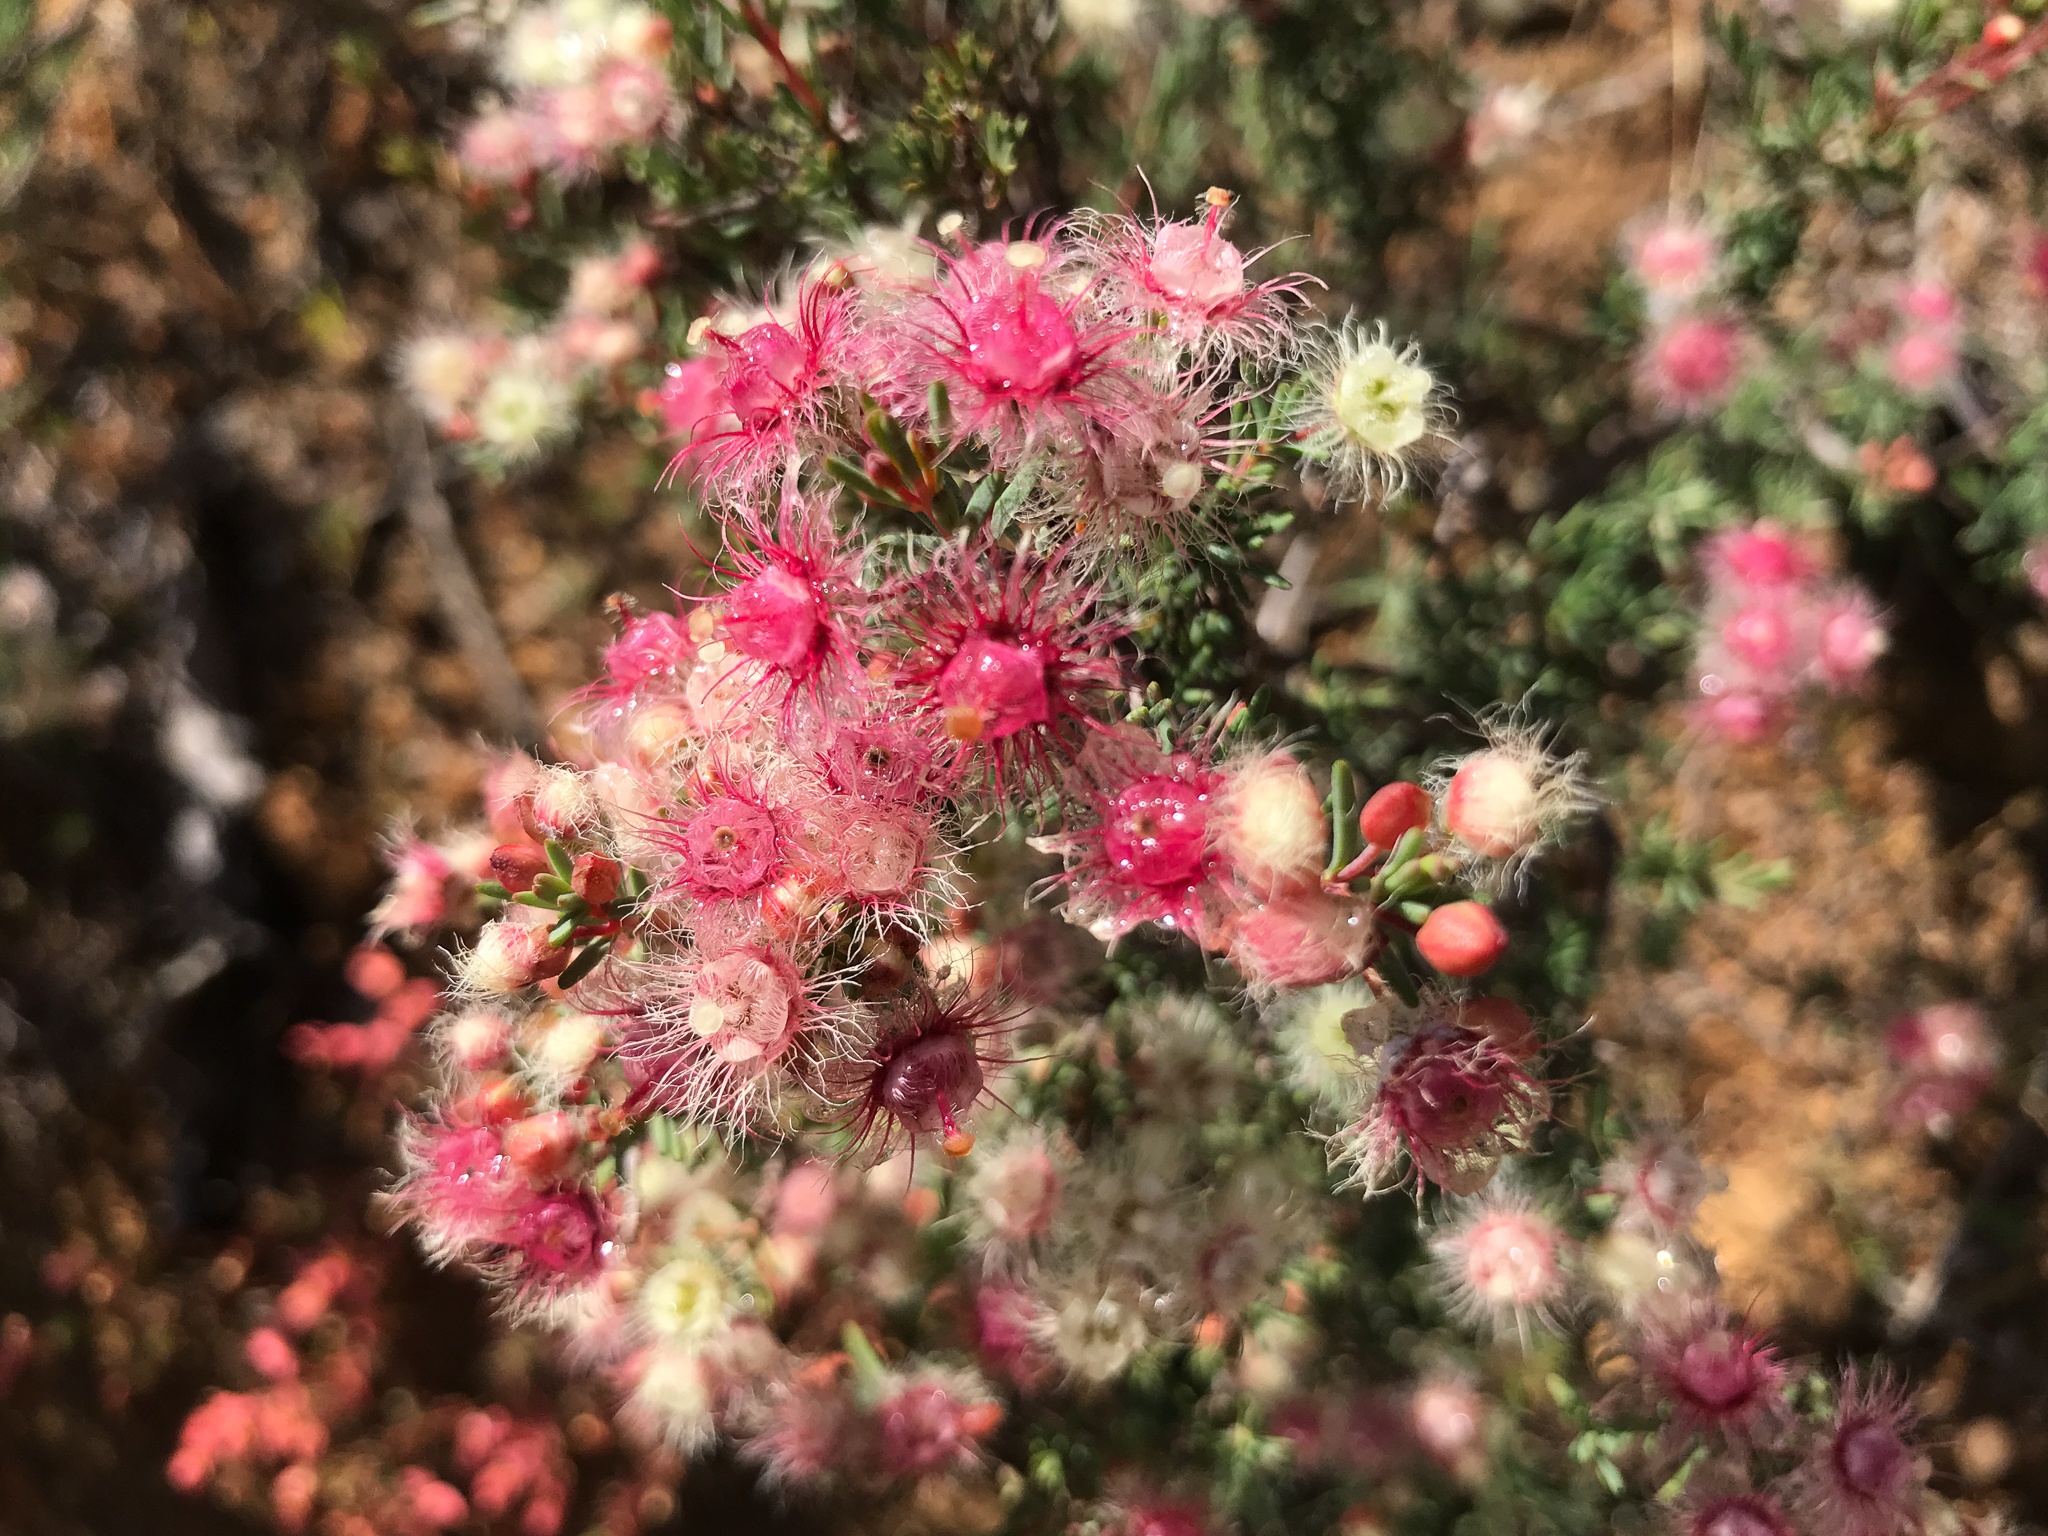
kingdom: Plantae
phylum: Tracheophyta
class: Magnoliopsida
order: Myrtales
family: Myrtaceae
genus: Verticordia
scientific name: Verticordia huegelii
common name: Variegate feather-flower
